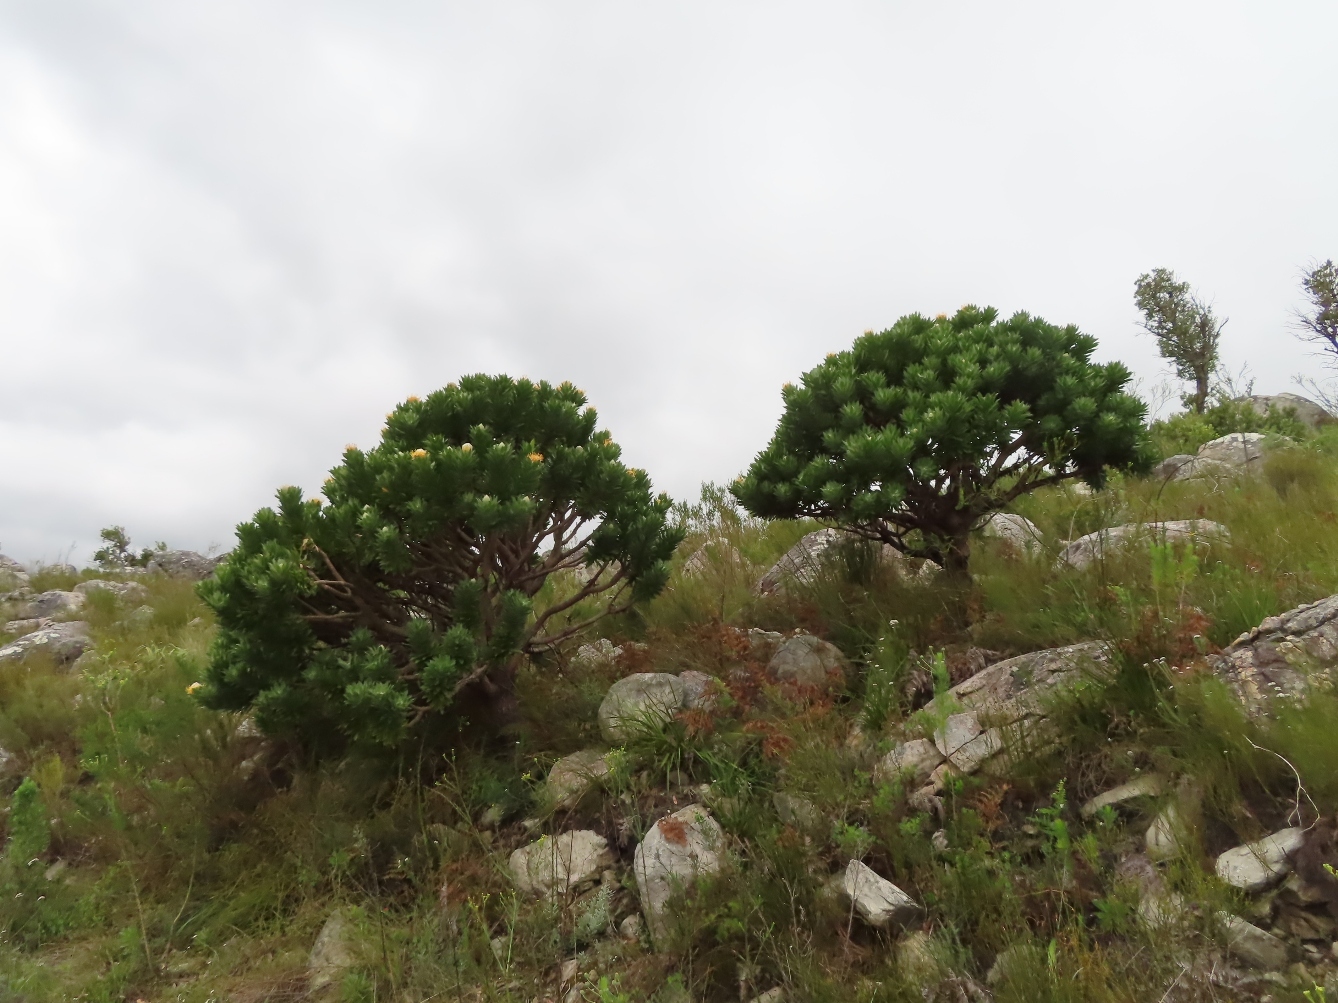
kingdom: Plantae
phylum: Tracheophyta
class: Magnoliopsida
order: Proteales
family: Proteaceae
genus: Leucospermum
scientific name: Leucospermum conocarpodendron
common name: Tree pincushion
